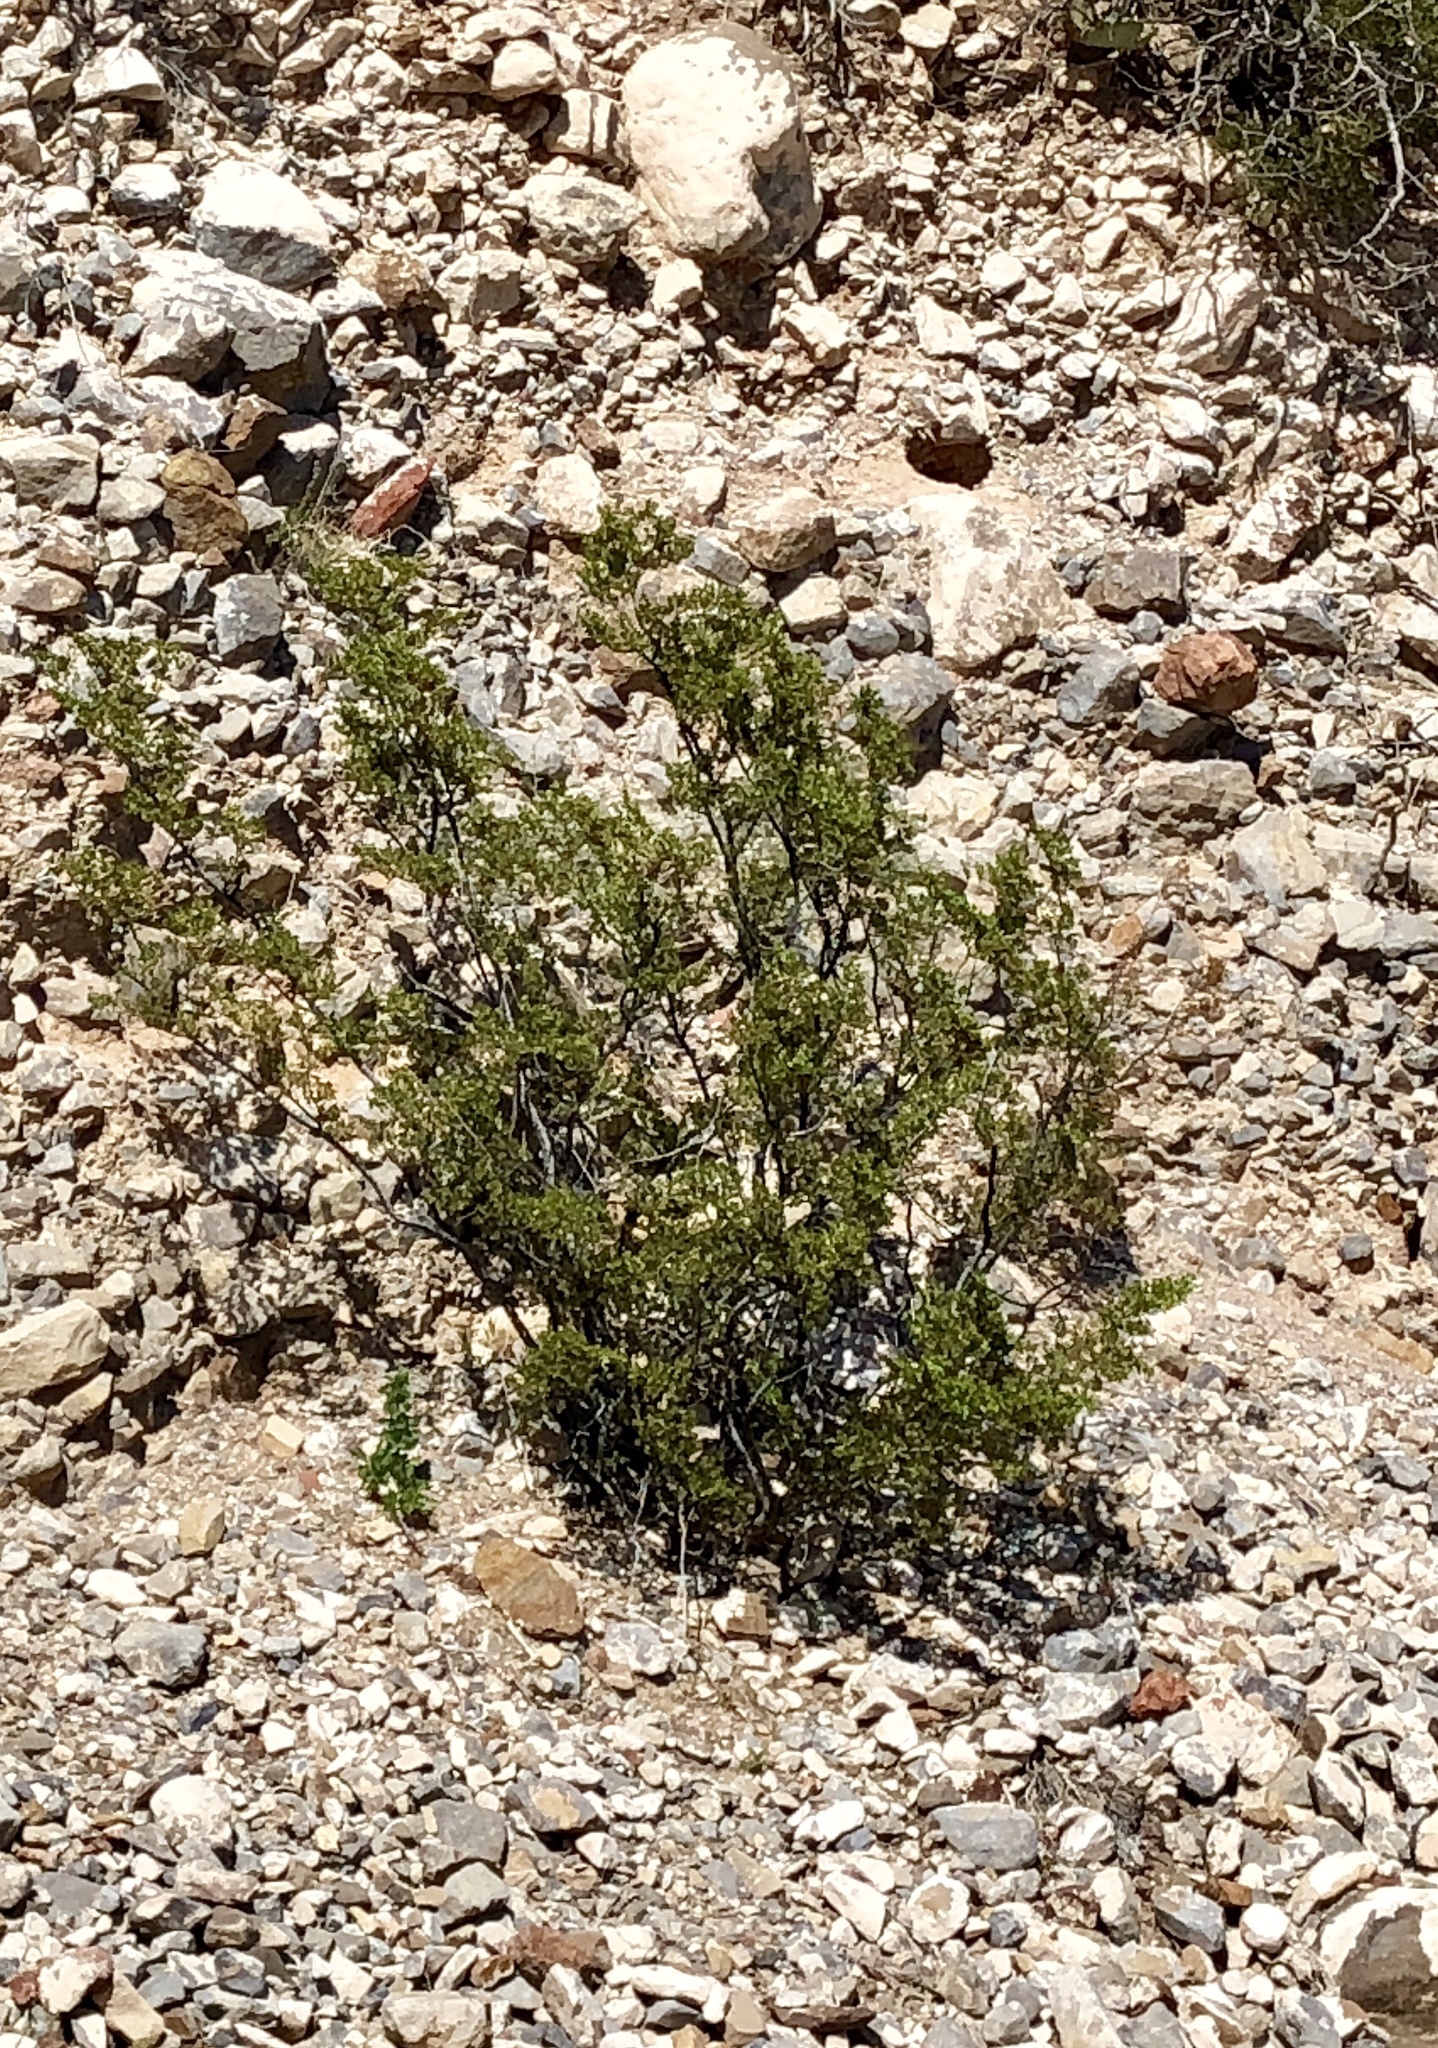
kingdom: Plantae
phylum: Tracheophyta
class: Magnoliopsida
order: Zygophyllales
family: Zygophyllaceae
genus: Larrea
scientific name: Larrea tridentata
